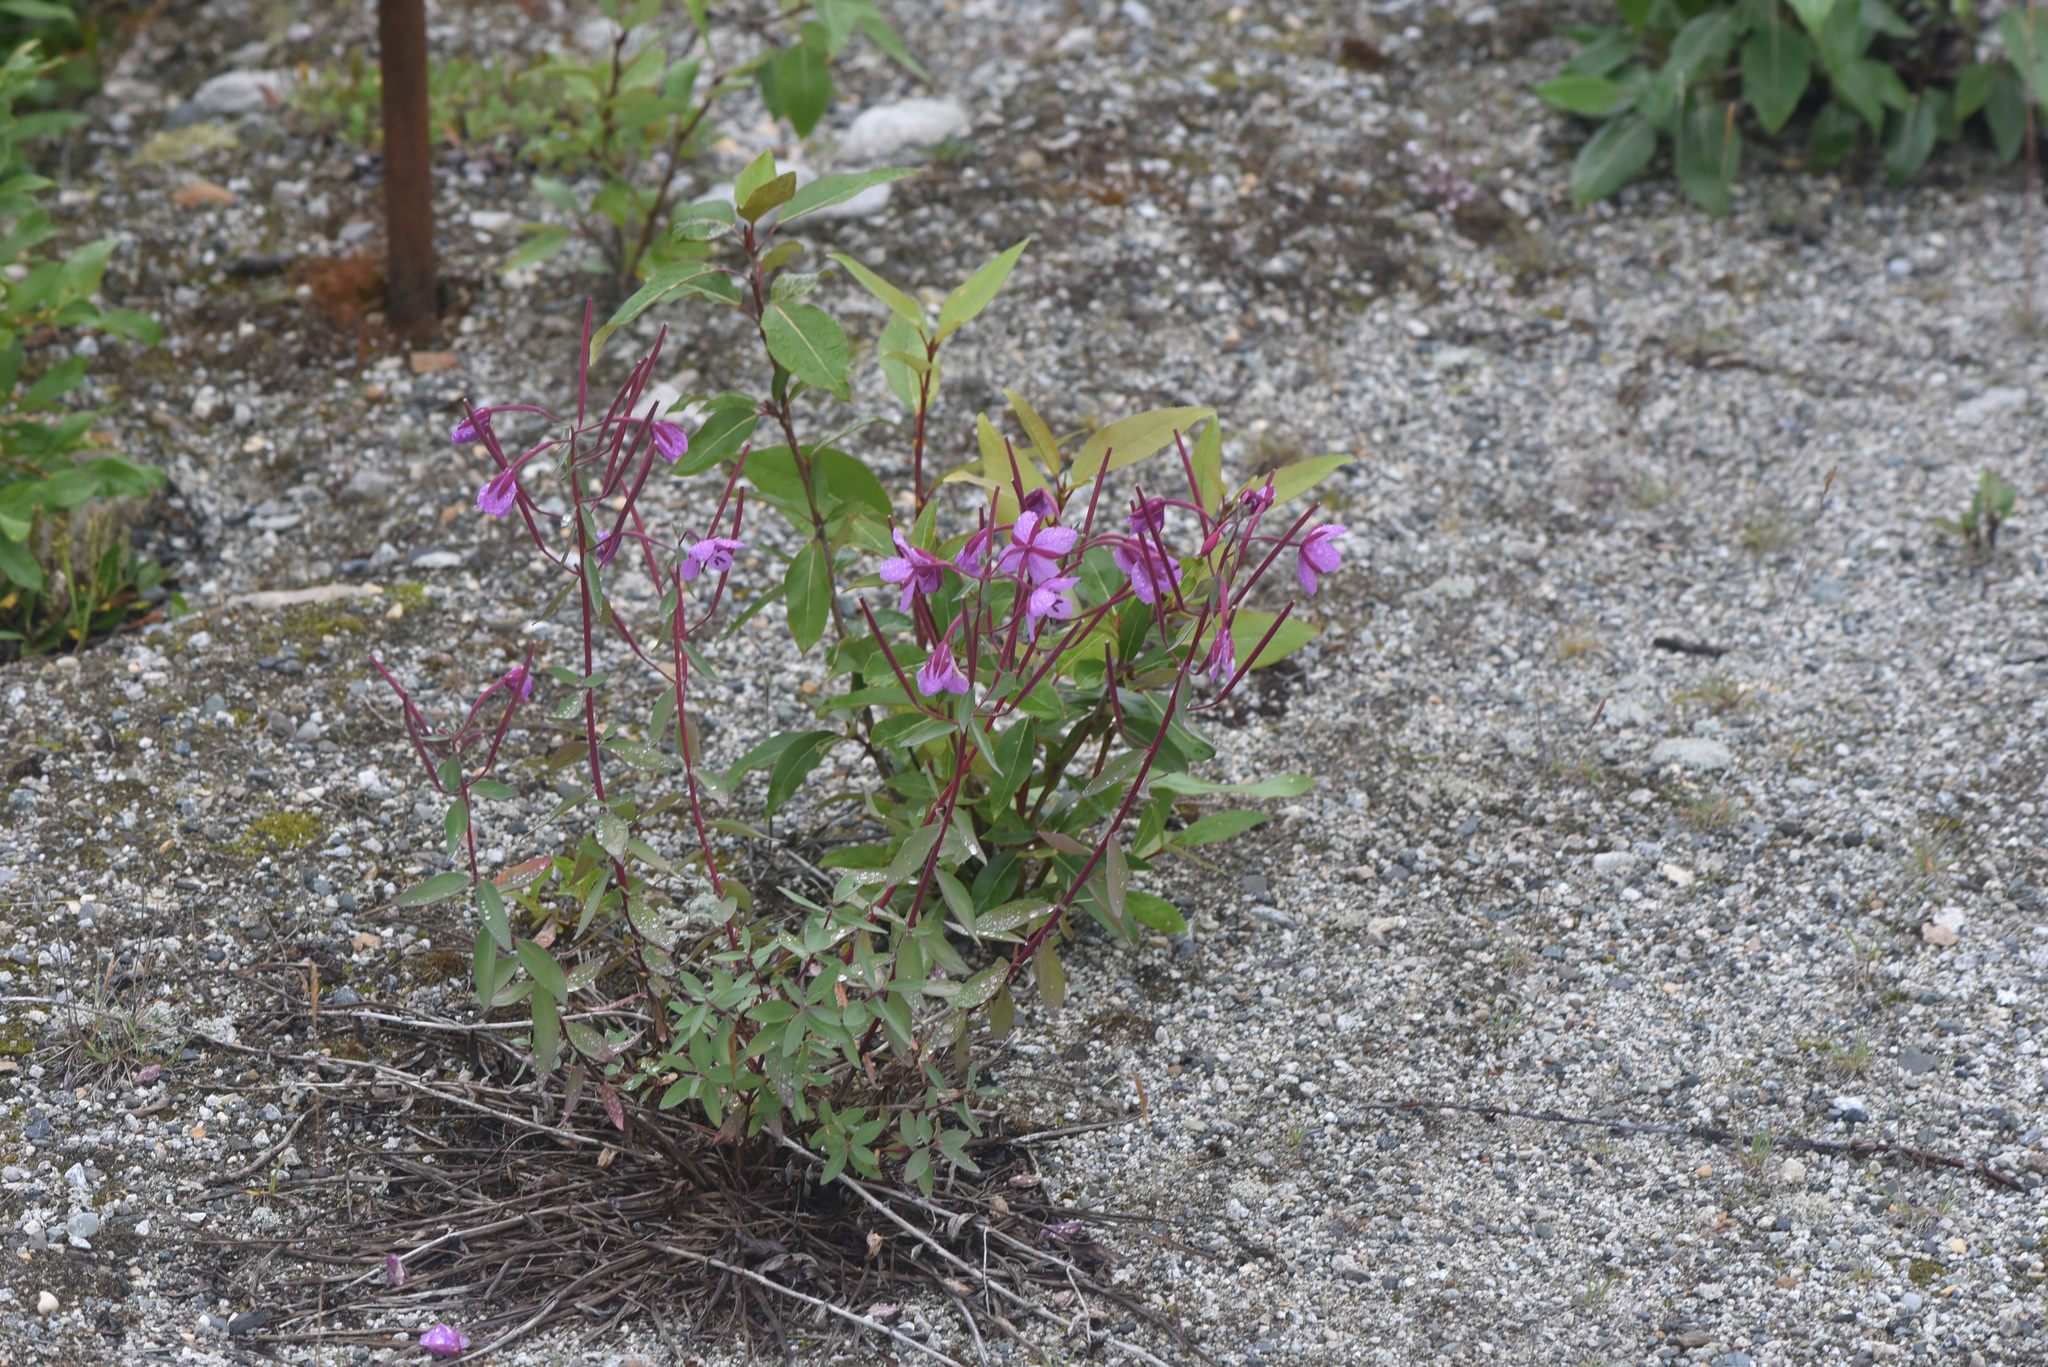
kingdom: Plantae
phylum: Tracheophyta
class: Magnoliopsida
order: Myrtales
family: Onagraceae
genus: Chamaenerion
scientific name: Chamaenerion latifolium
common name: Dwarf fireweed
